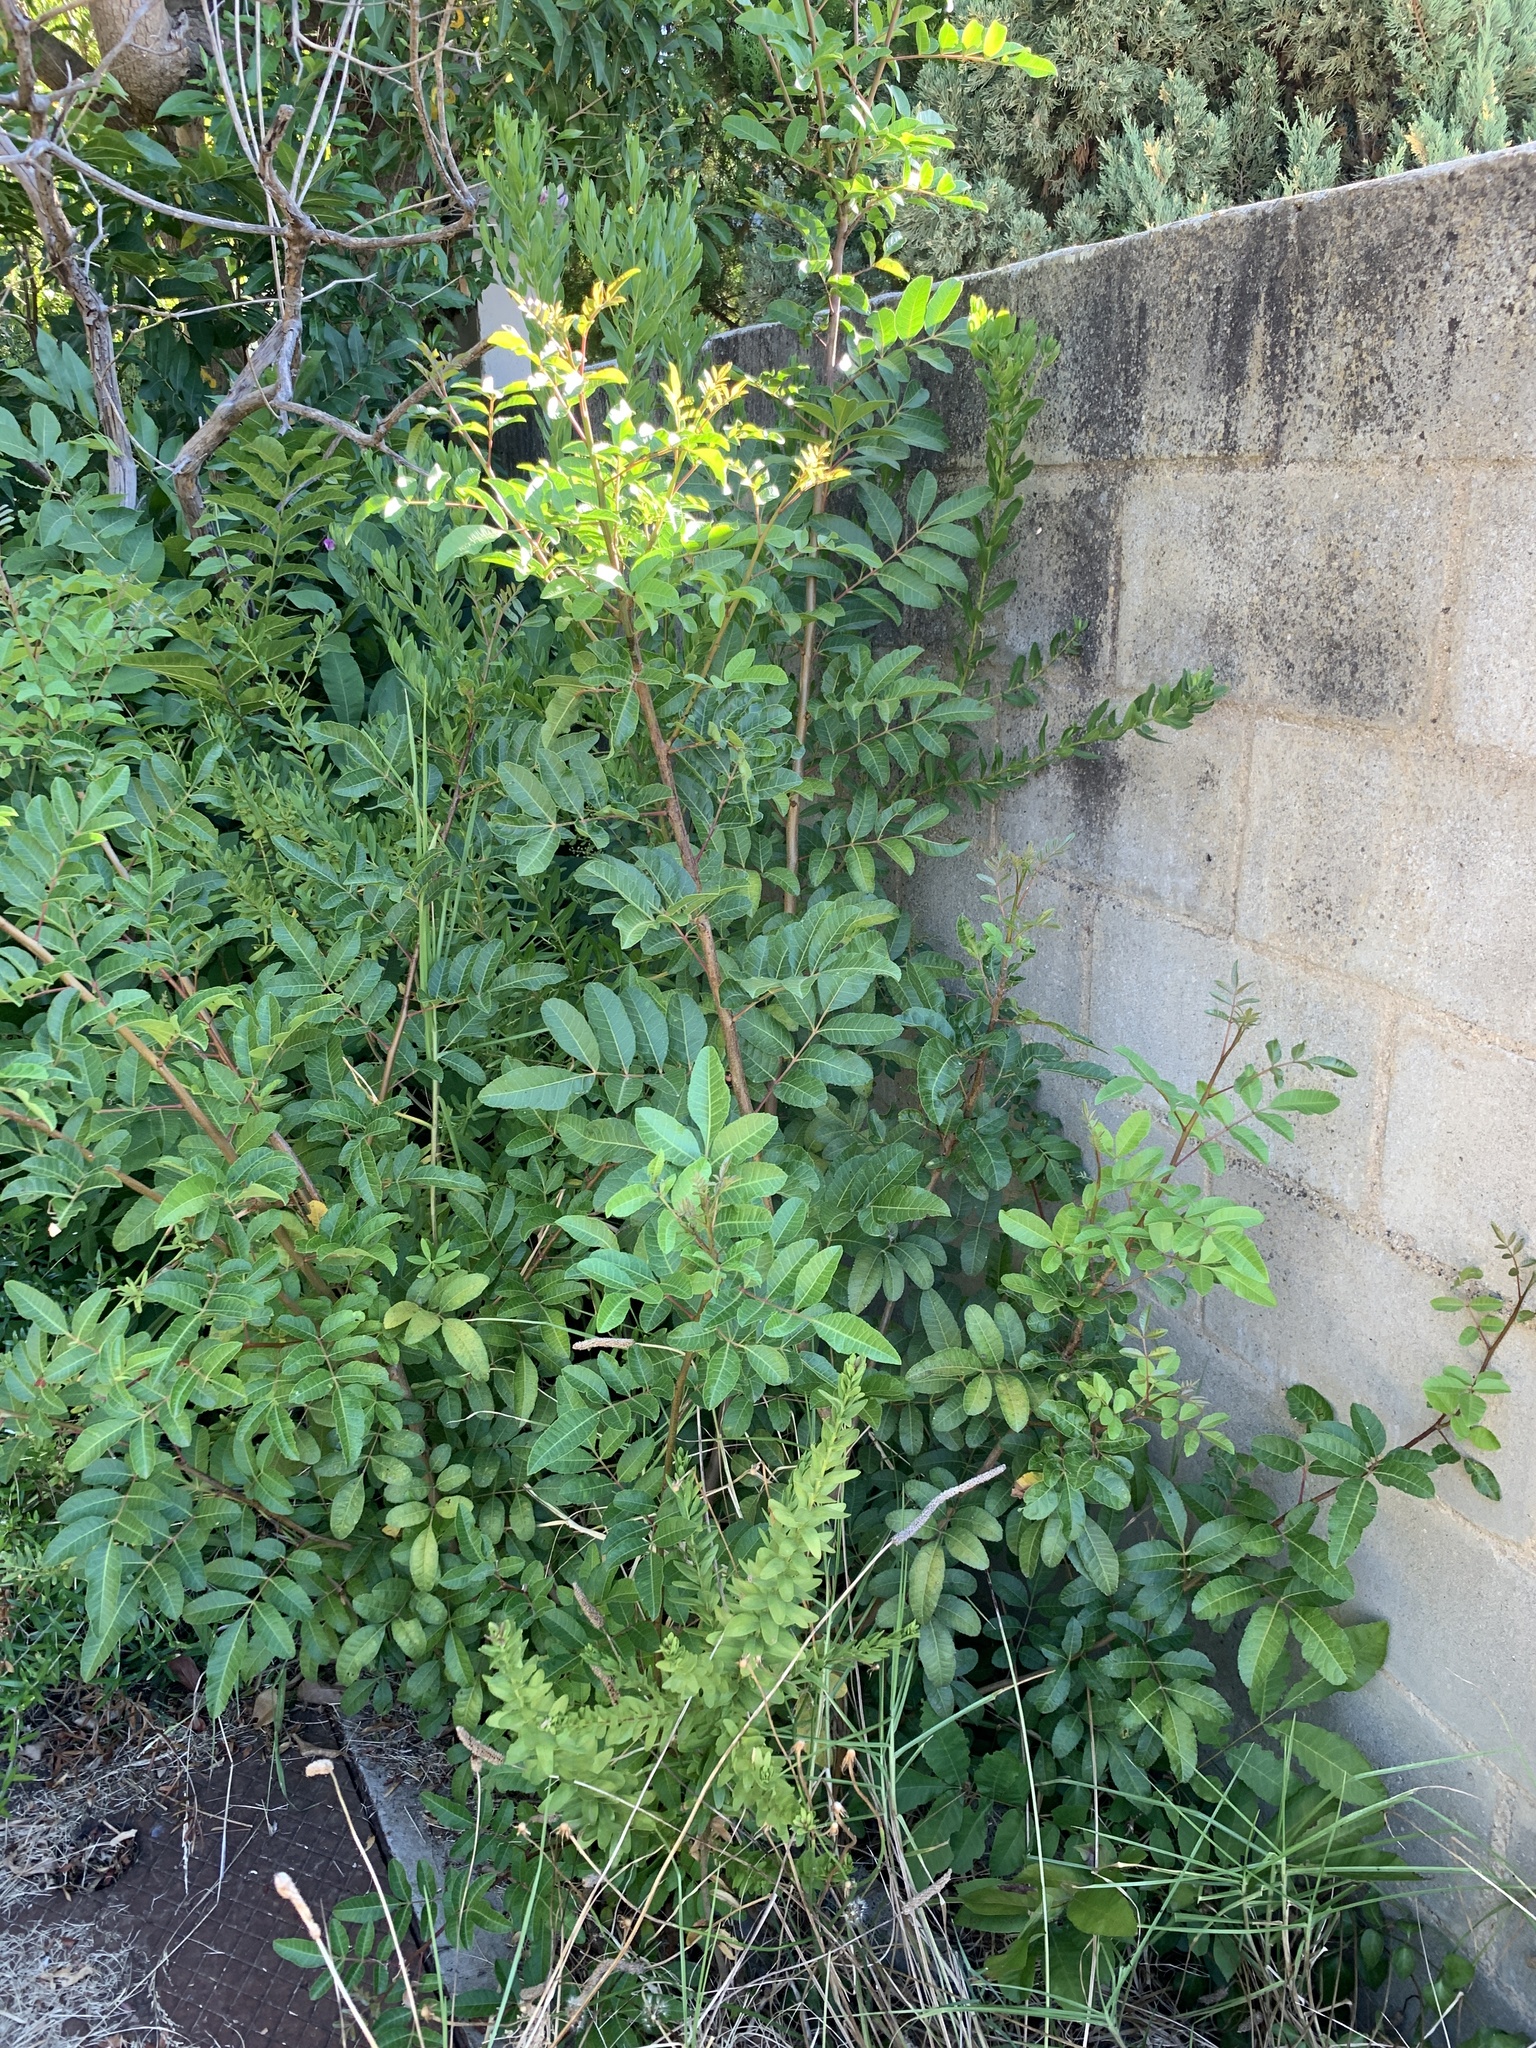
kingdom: Plantae
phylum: Tracheophyta
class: Magnoliopsida
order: Sapindales
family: Anacardiaceae
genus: Schinus
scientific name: Schinus terebinthifolia
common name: Brazilian peppertree
